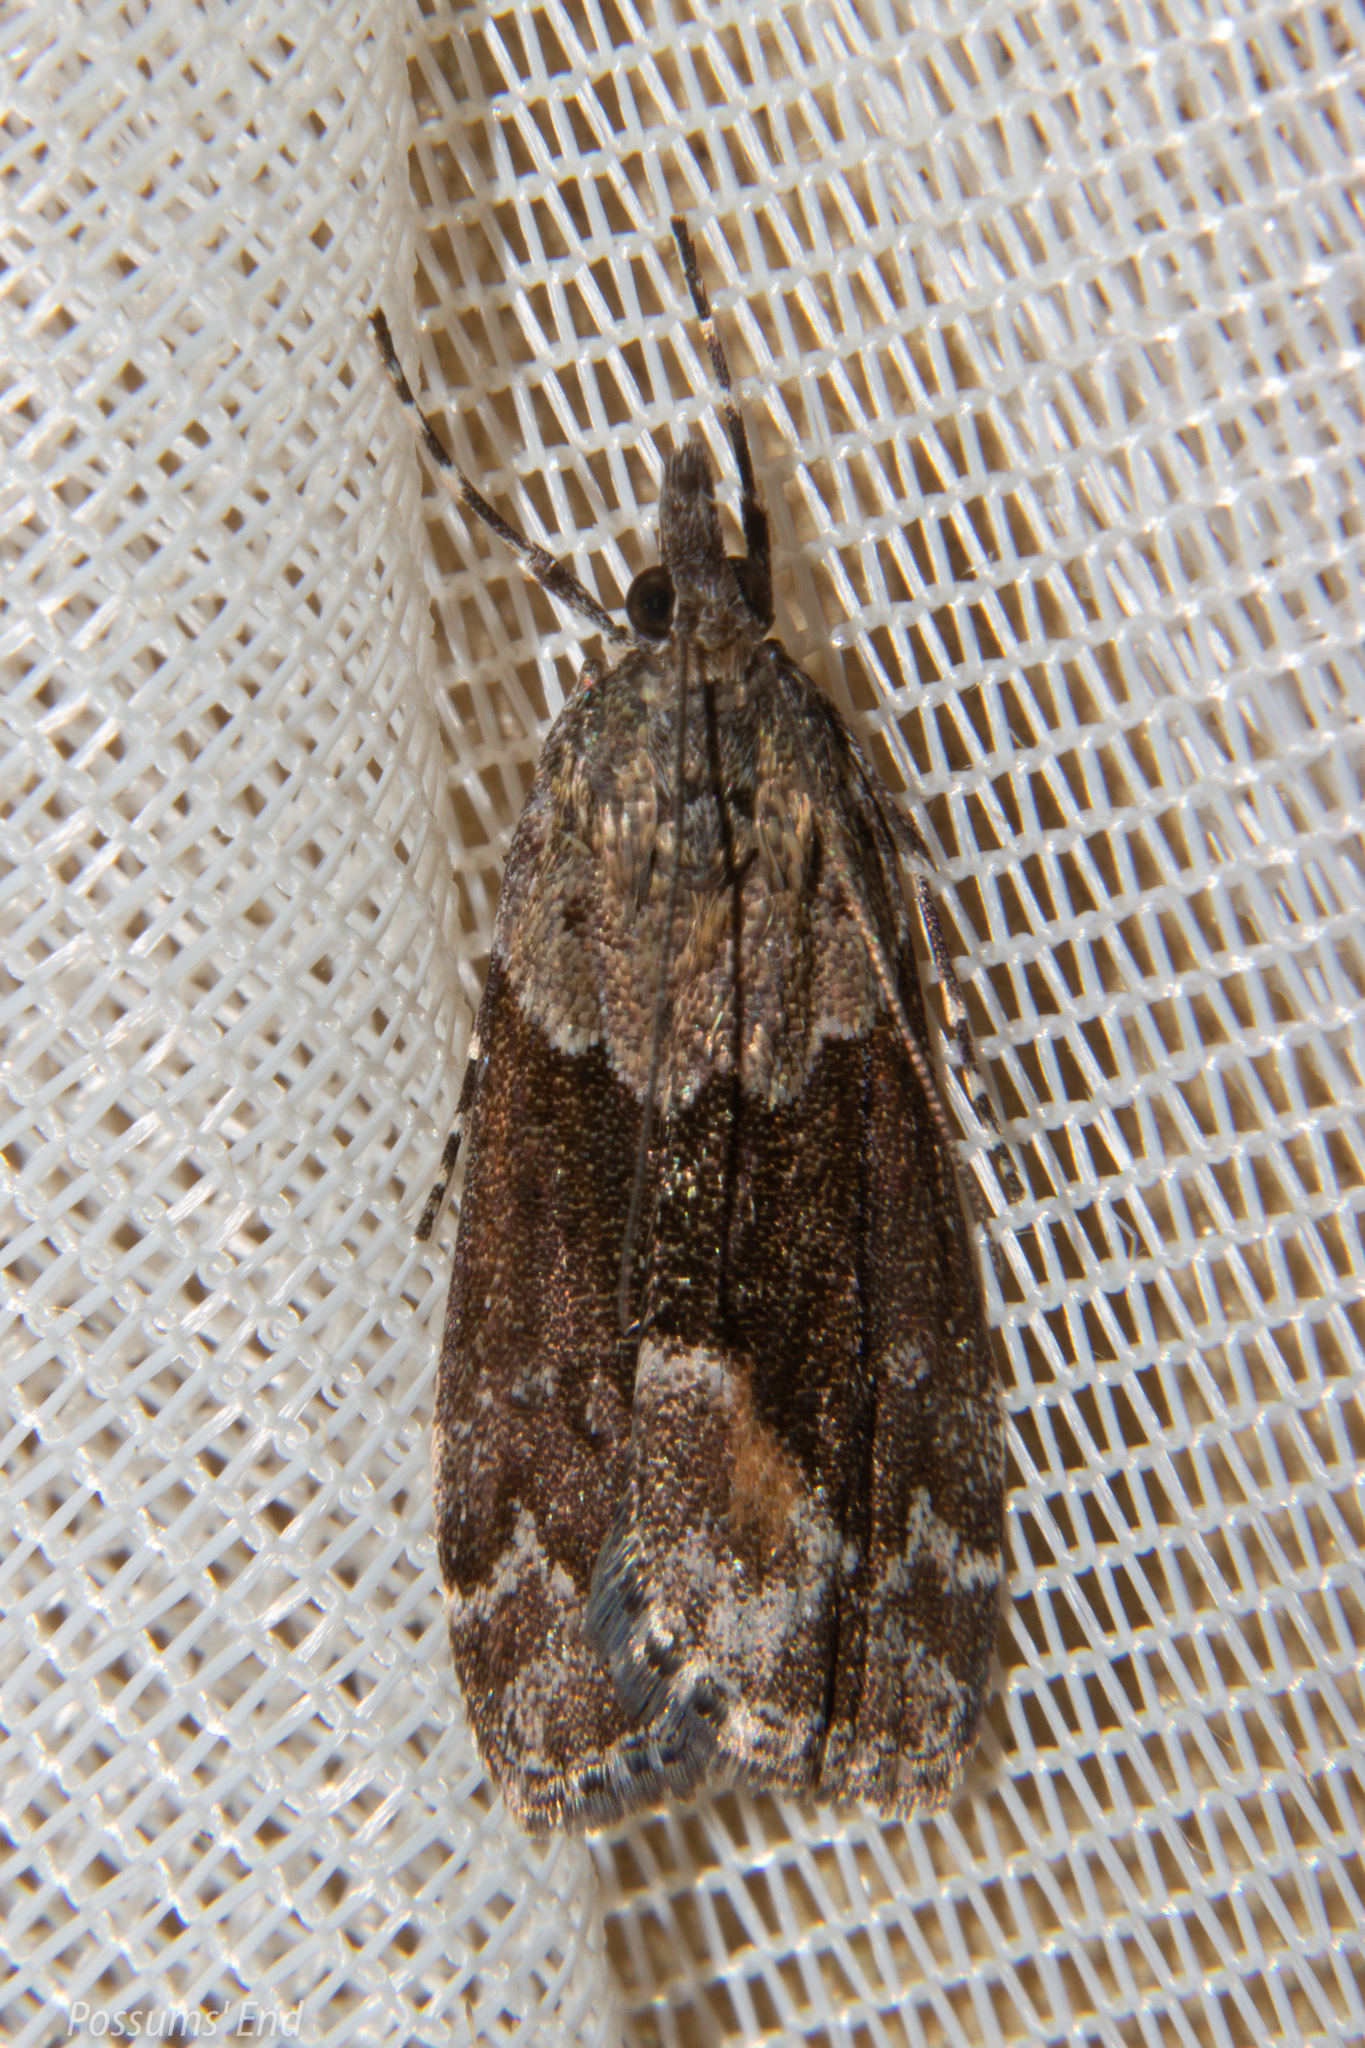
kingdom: Animalia
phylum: Arthropoda
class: Insecta
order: Lepidoptera
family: Crambidae
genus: Eudonia
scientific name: Eudonia submarginalis
